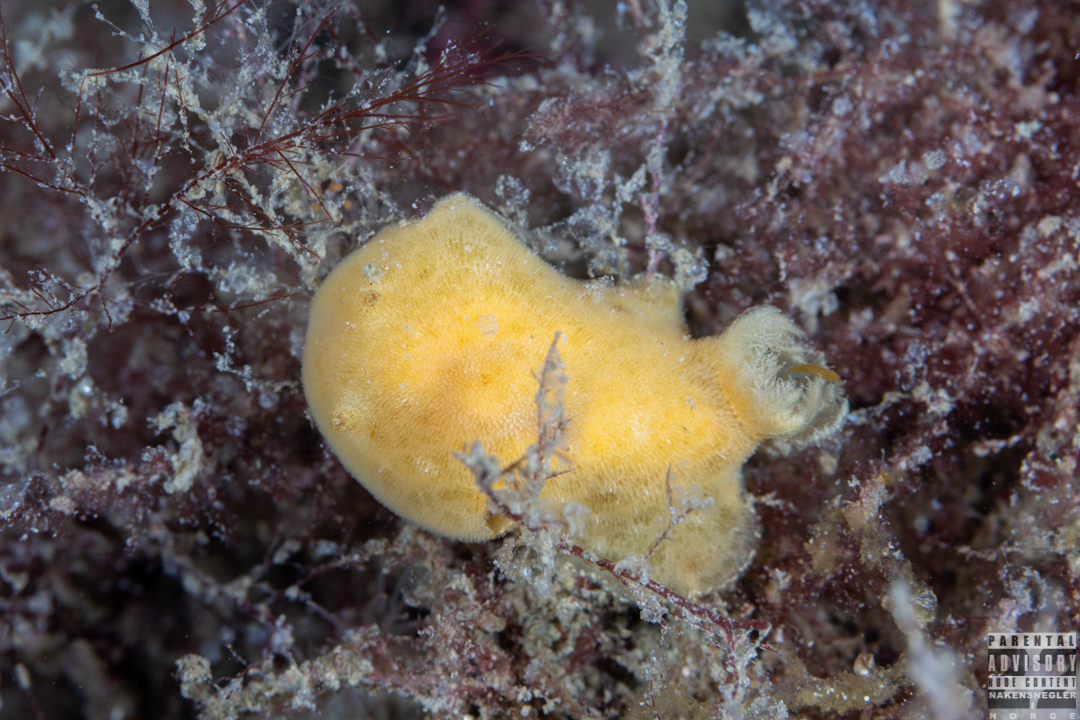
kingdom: Animalia
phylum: Mollusca
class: Gastropoda
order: Nudibranchia
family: Discodorididae
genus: Jorunna
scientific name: Jorunna tomentosa
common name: Grey sea slug
